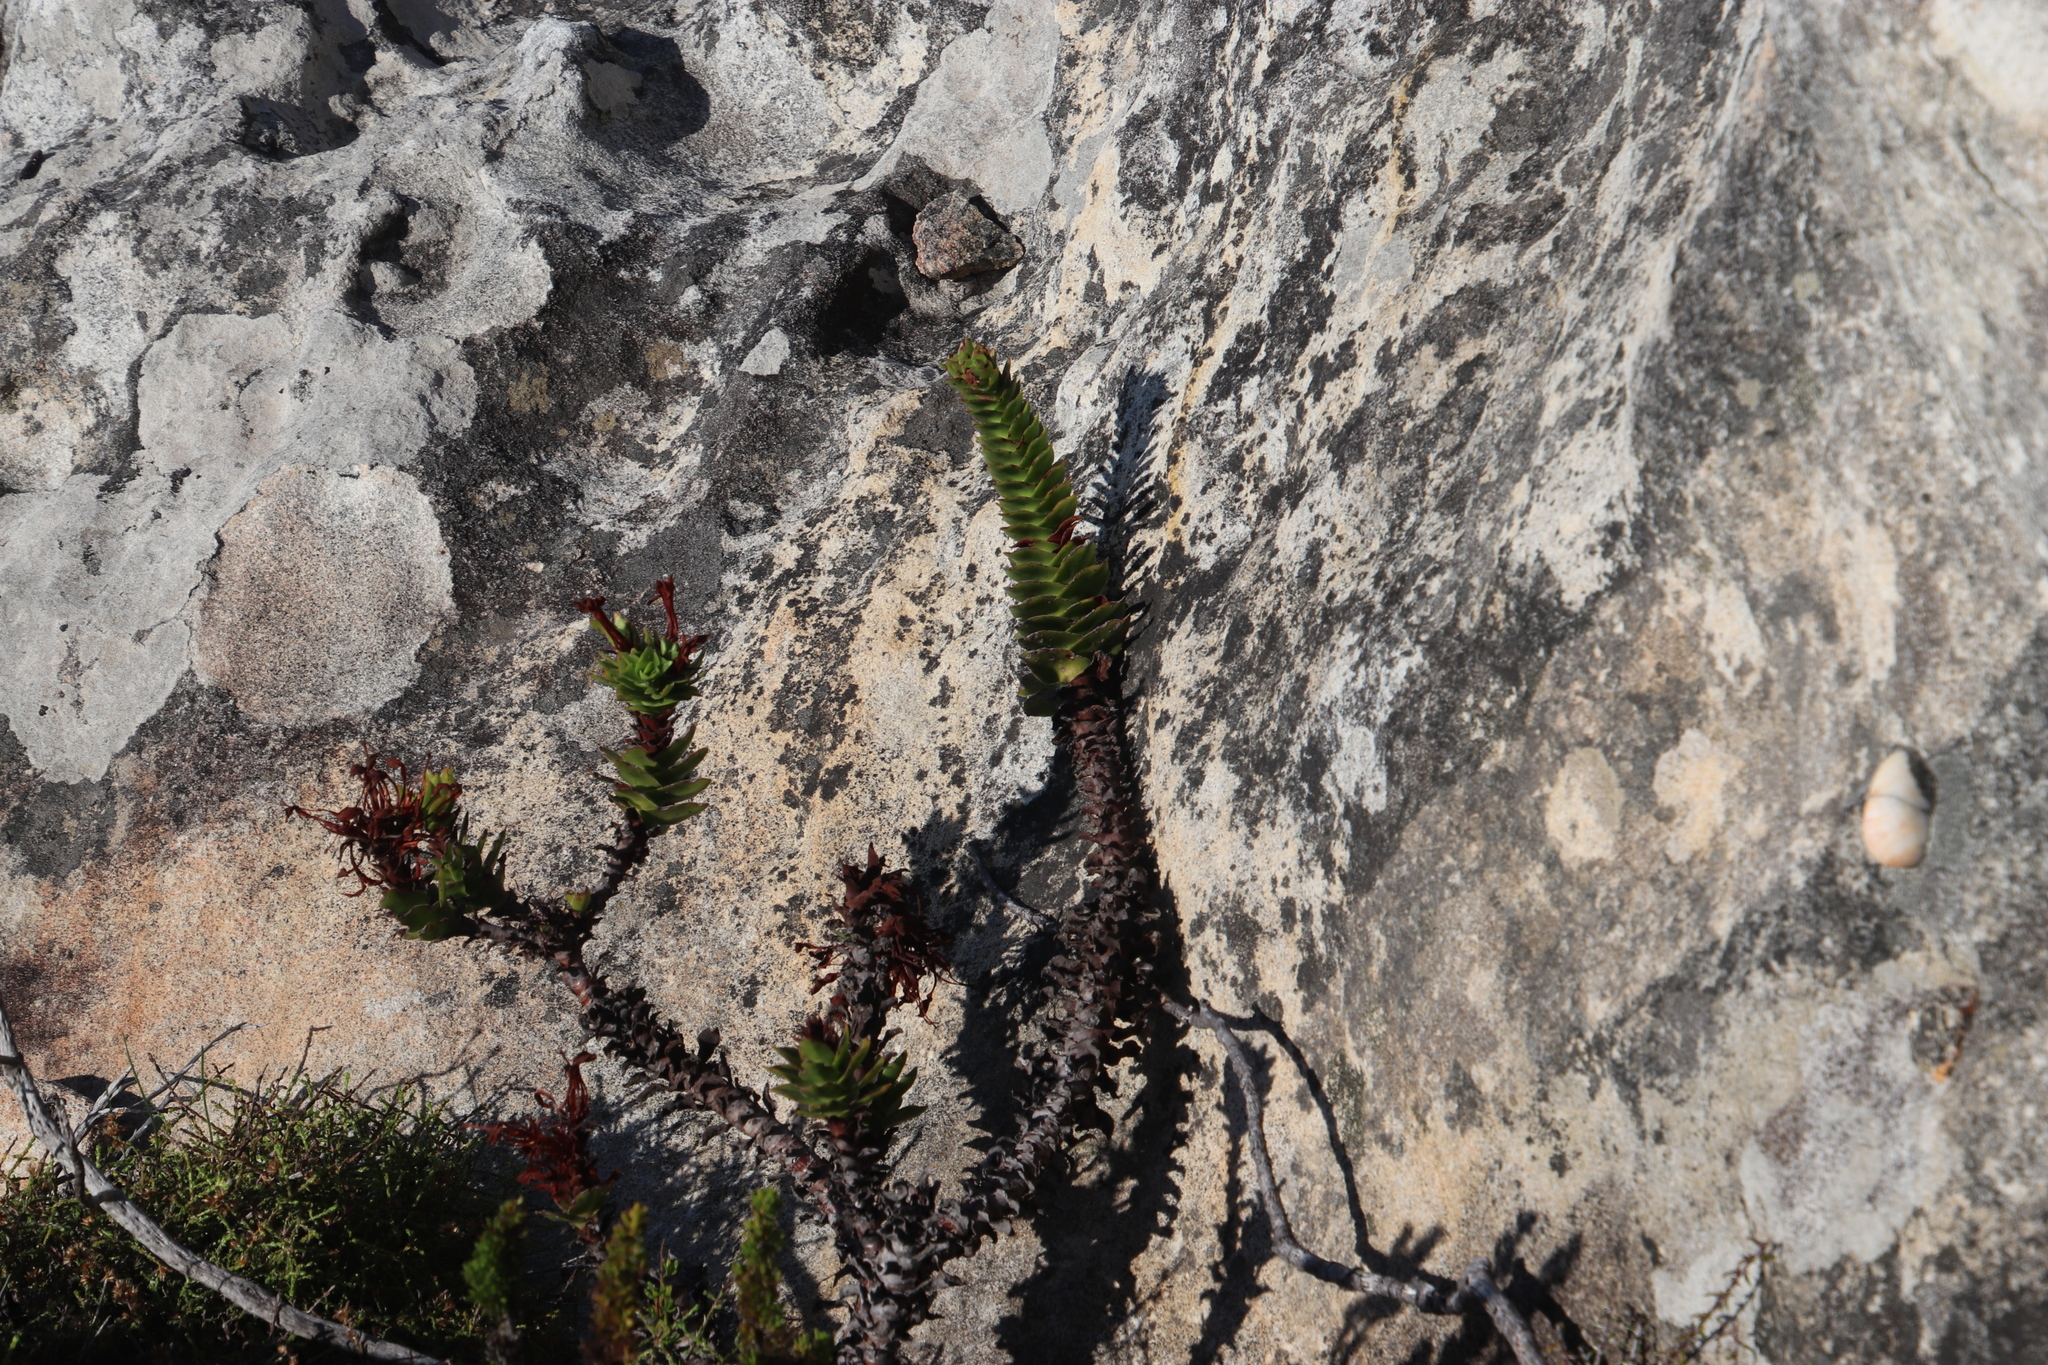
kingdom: Plantae
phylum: Tracheophyta
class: Magnoliopsida
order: Saxifragales
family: Crassulaceae
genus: Crassula
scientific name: Crassula coccinea
